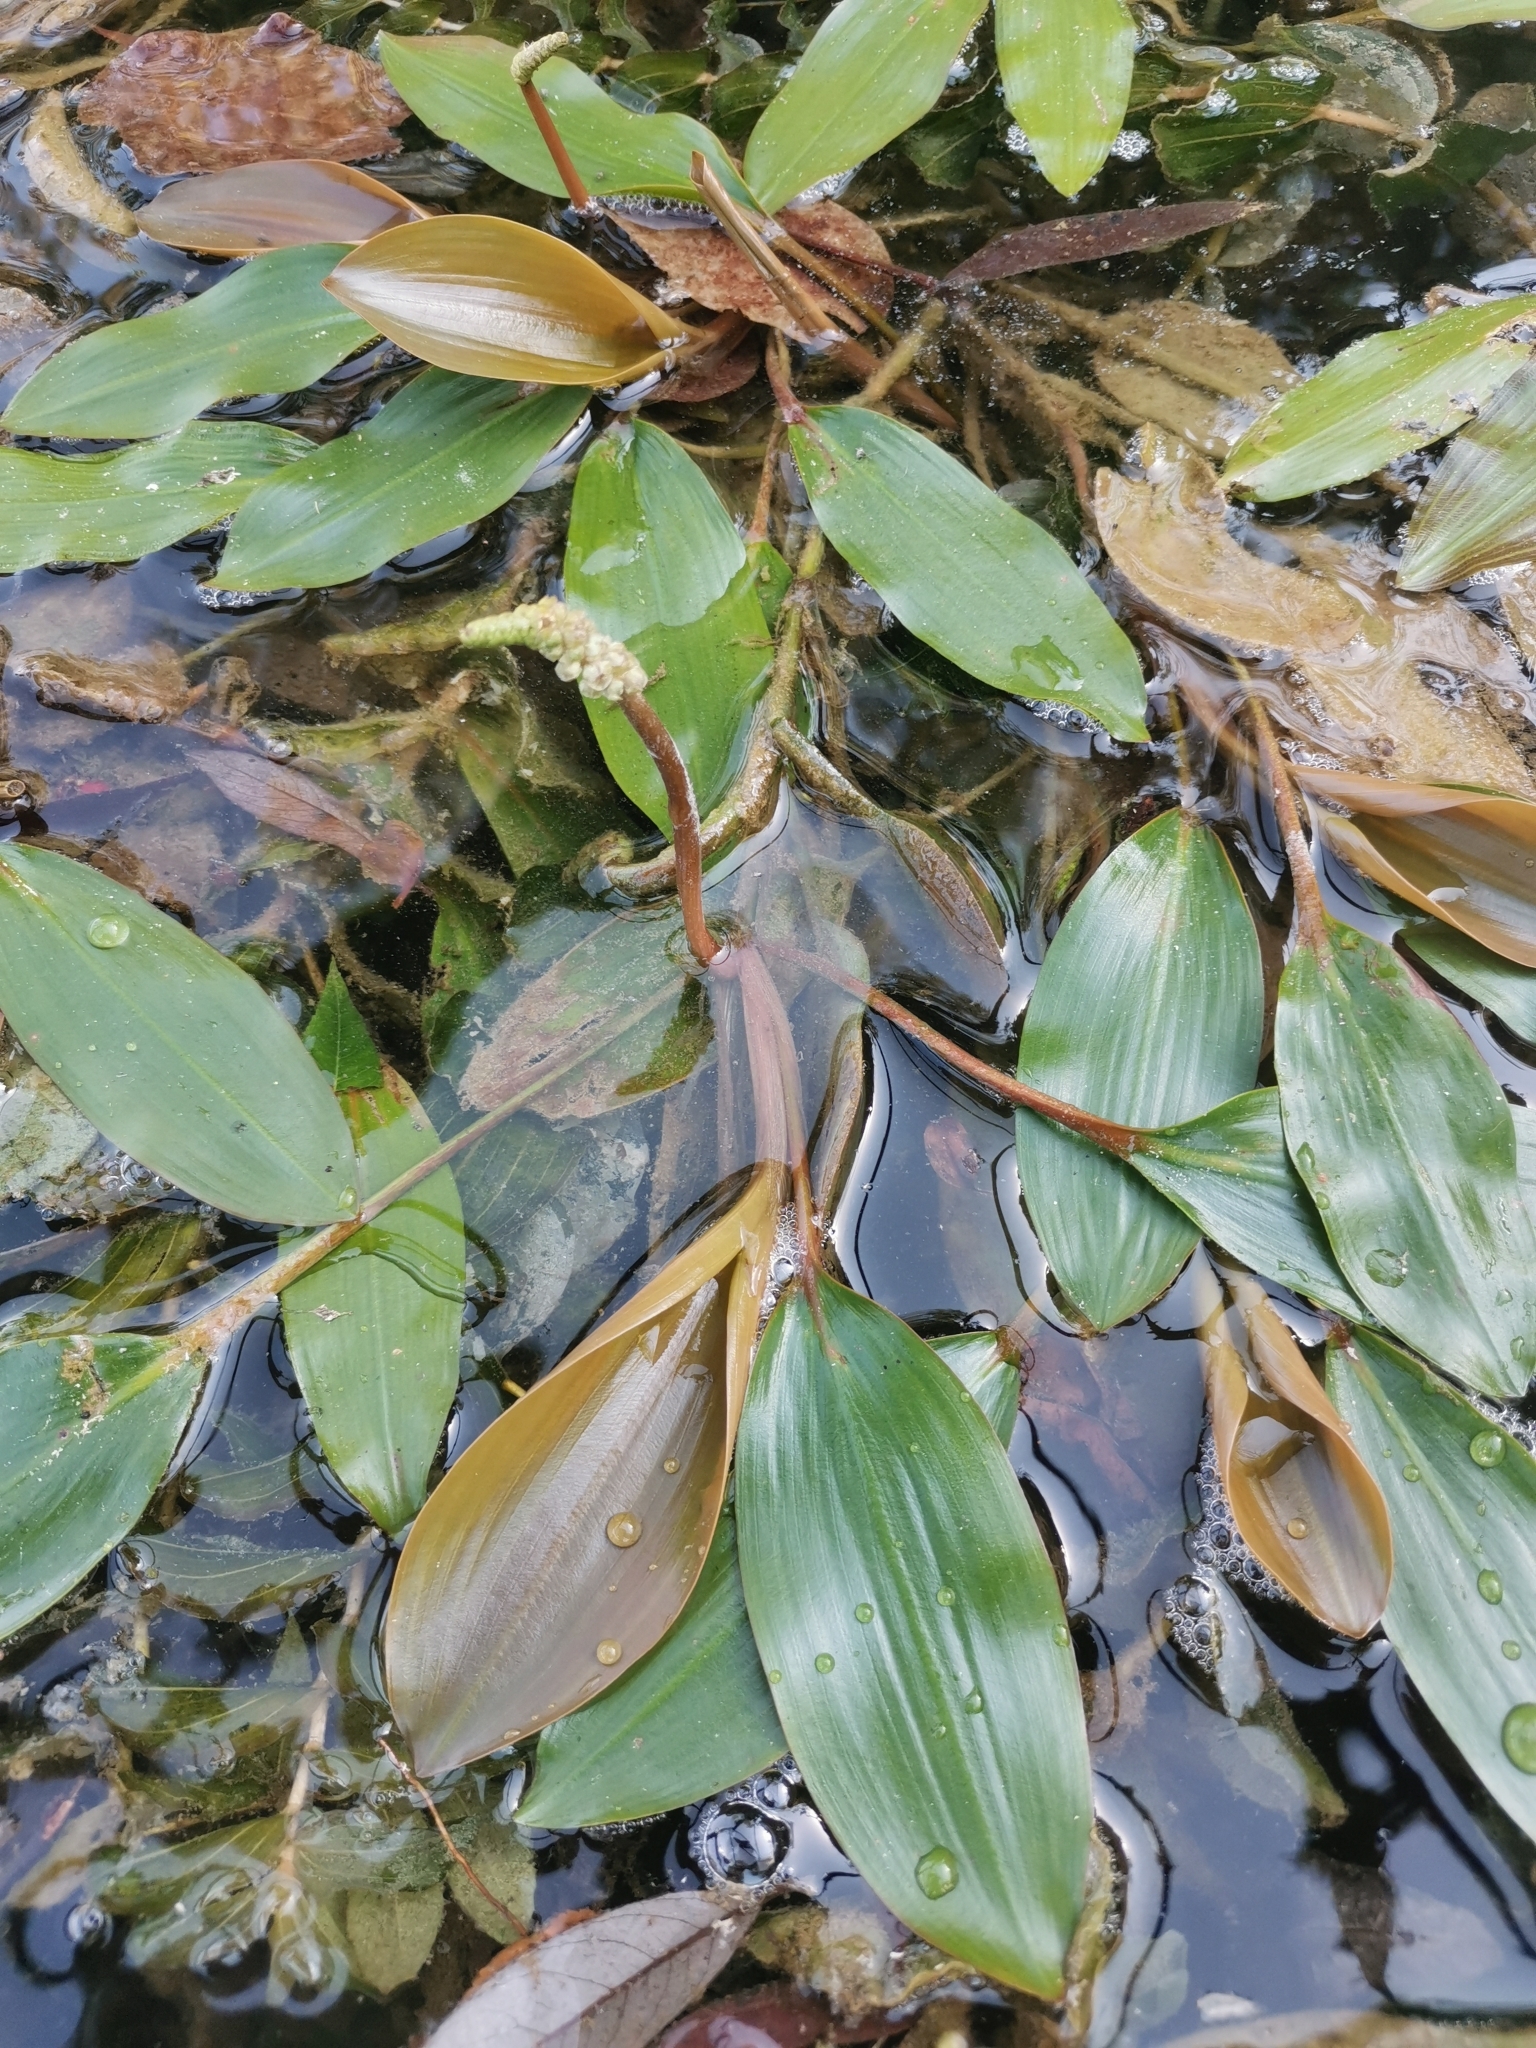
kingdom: Plantae
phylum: Tracheophyta
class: Liliopsida
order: Alismatales
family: Potamogetonaceae
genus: Potamogeton
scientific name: Potamogeton nodosus
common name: Loddon pondweed
